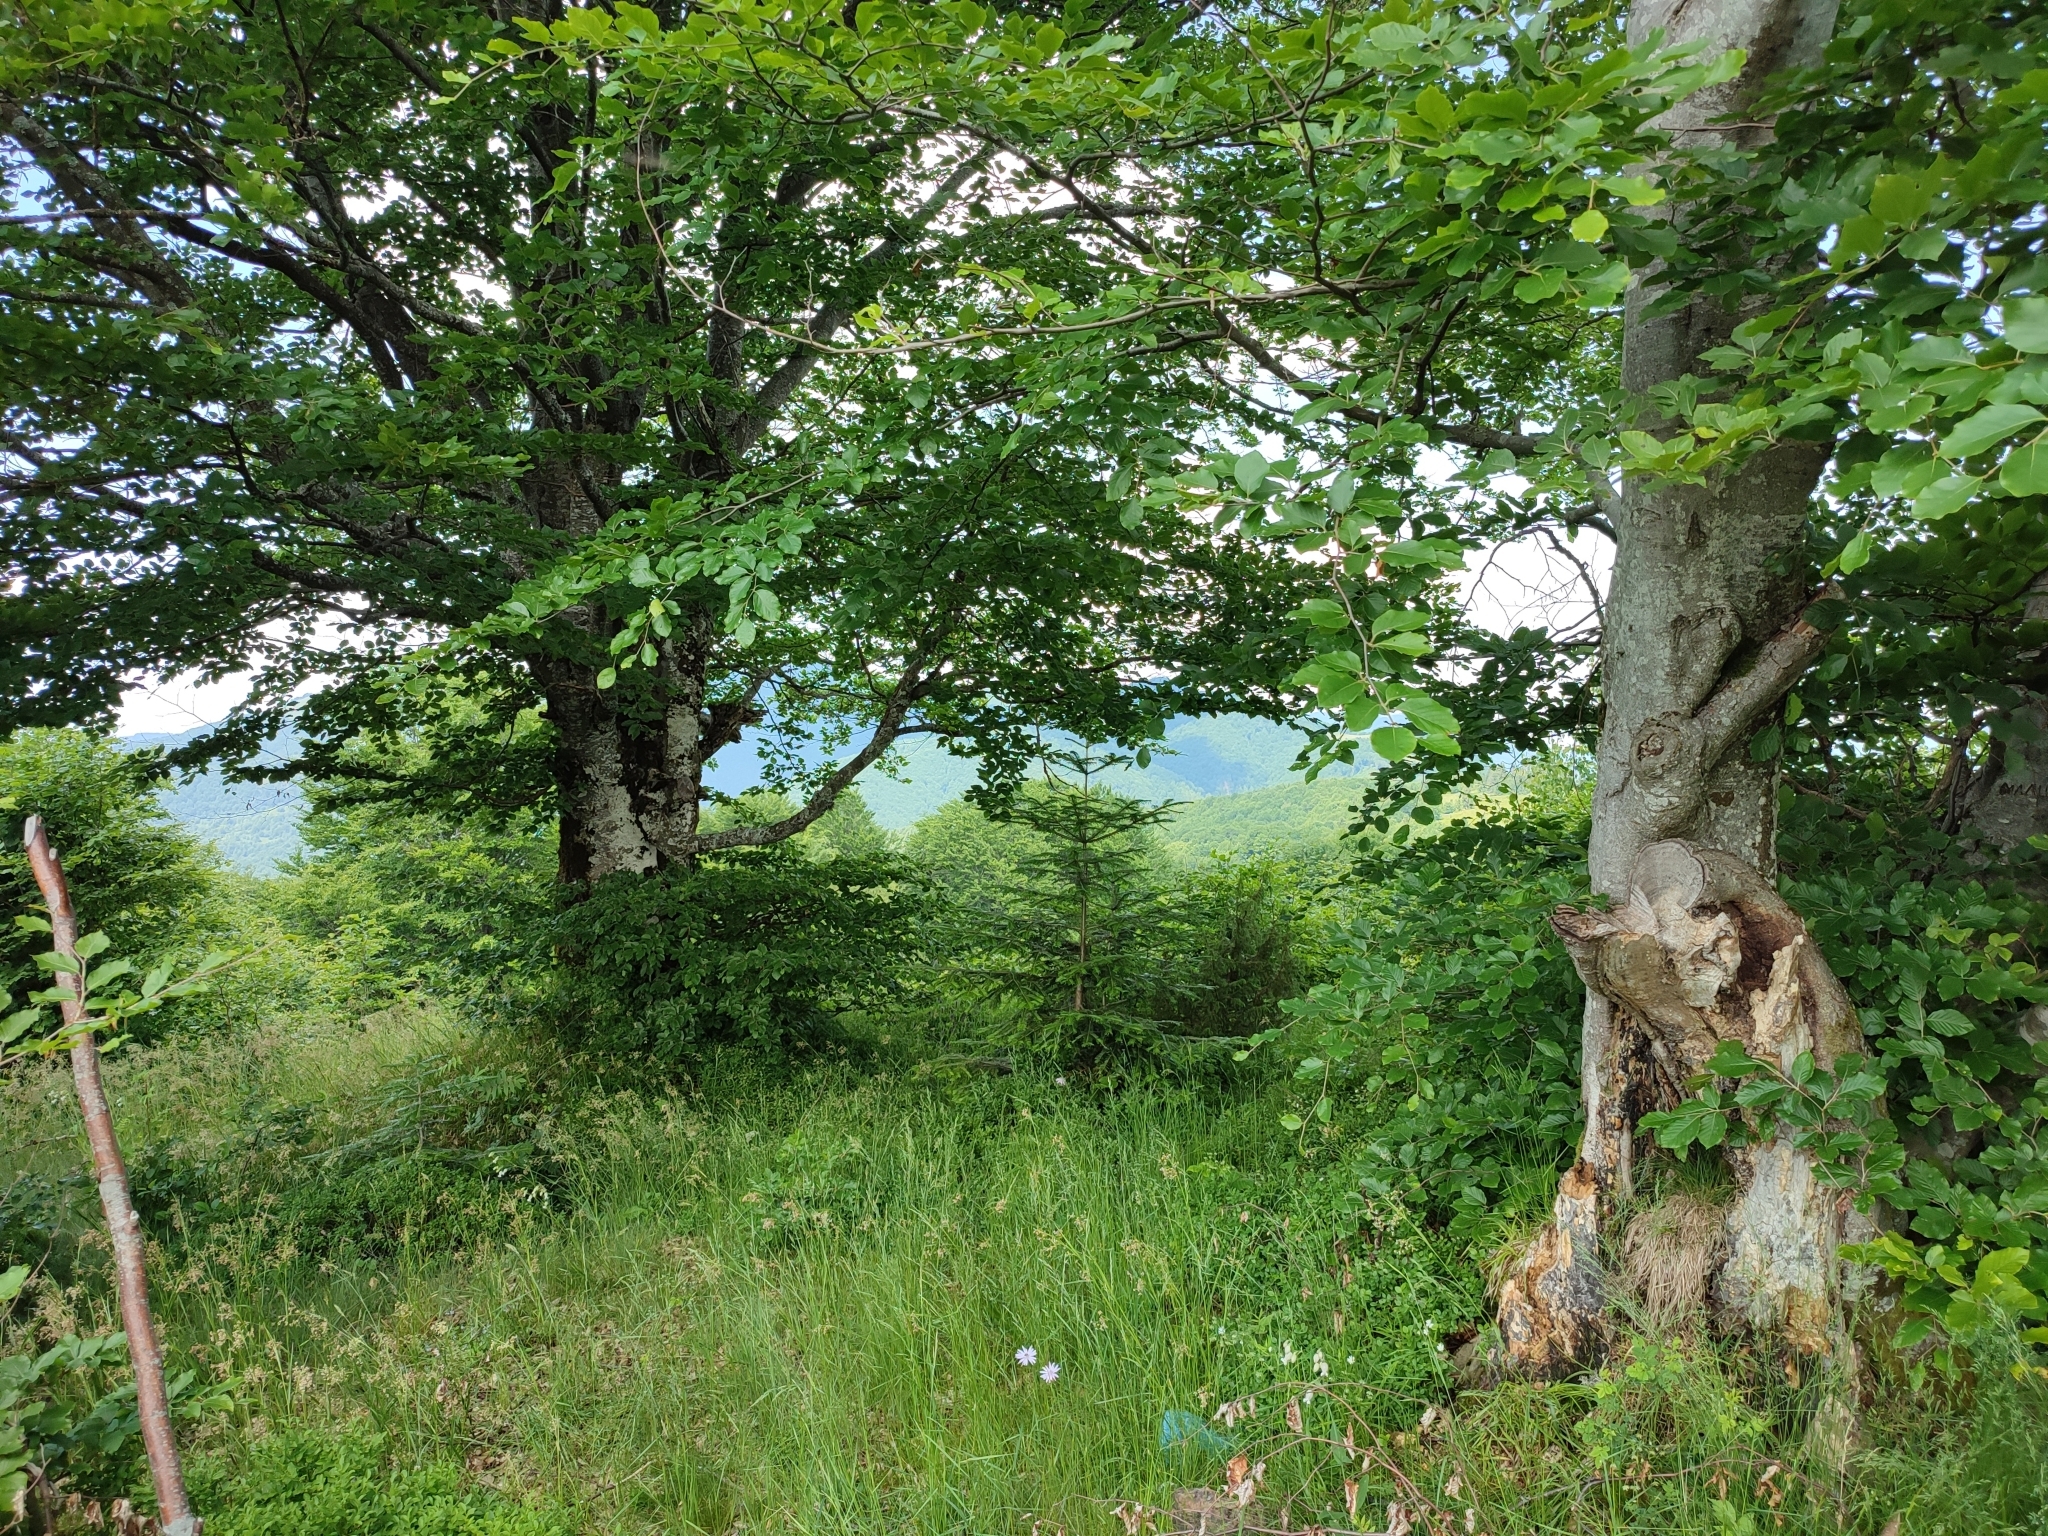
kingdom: Plantae
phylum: Tracheophyta
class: Magnoliopsida
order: Fagales
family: Fagaceae
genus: Fagus
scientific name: Fagus sylvatica
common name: Beech
